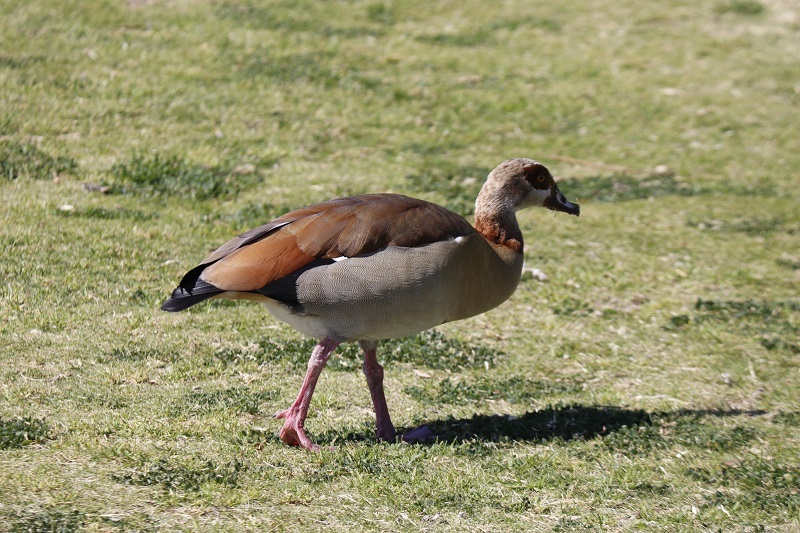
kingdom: Animalia
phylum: Chordata
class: Aves
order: Anseriformes
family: Anatidae
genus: Alopochen
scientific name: Alopochen aegyptiaca
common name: Egyptian goose
